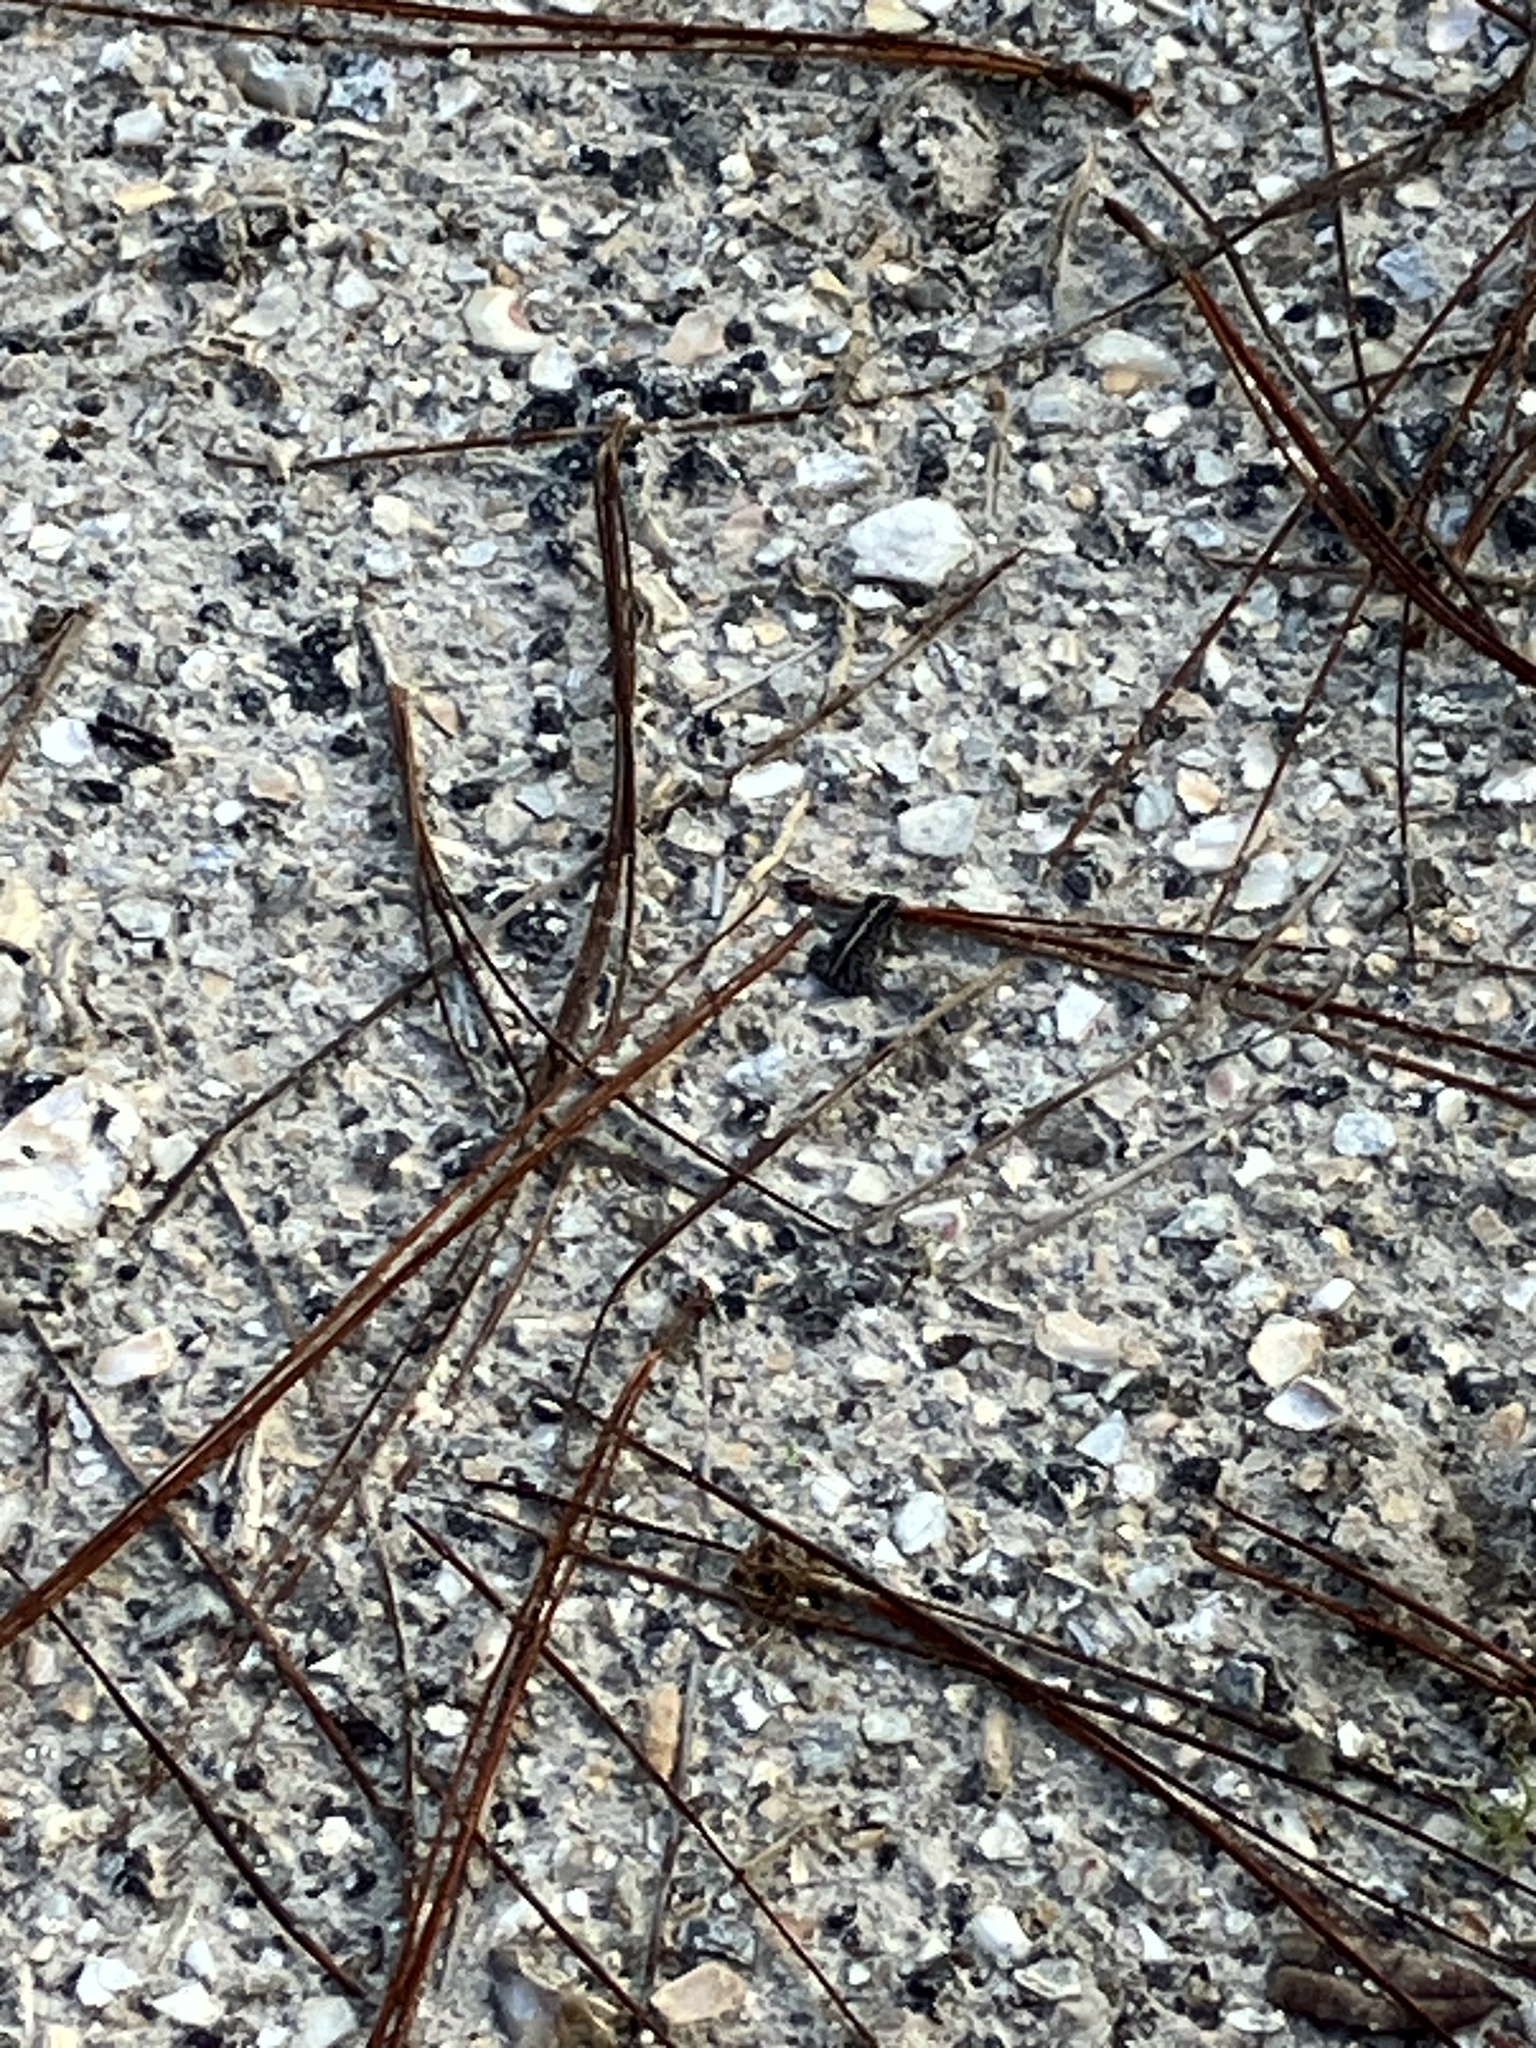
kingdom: Animalia
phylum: Chordata
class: Amphibia
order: Anura
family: Bufonidae
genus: Anaxyrus
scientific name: Anaxyrus quercicus
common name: Oak toad
